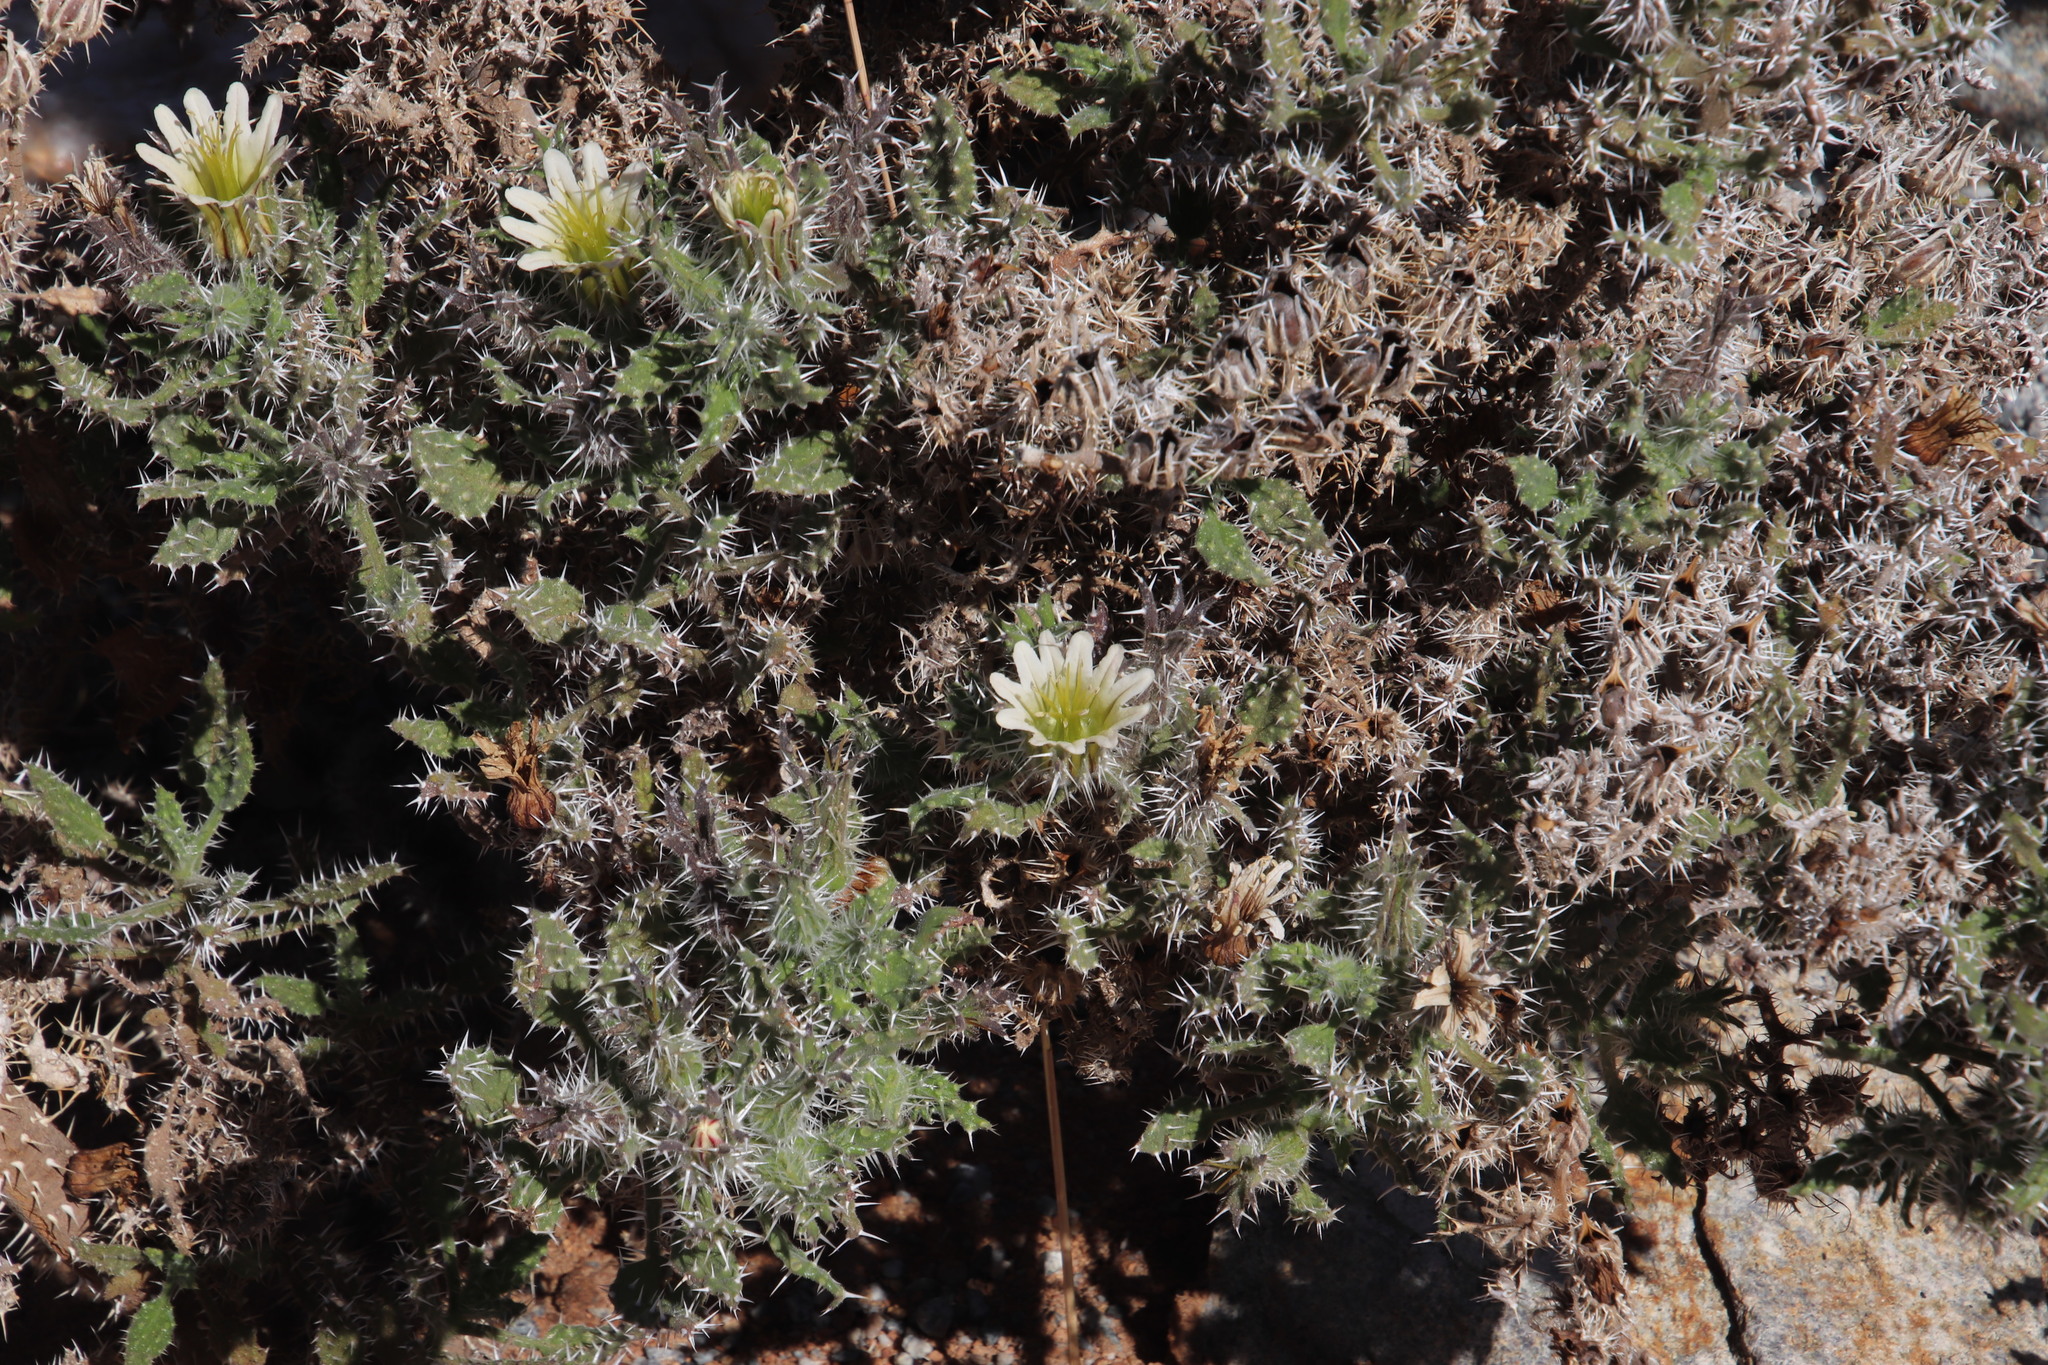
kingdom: Plantae
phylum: Tracheophyta
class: Magnoliopsida
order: Boraginales
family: Boraginaceae
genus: Codon
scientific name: Codon royenii
